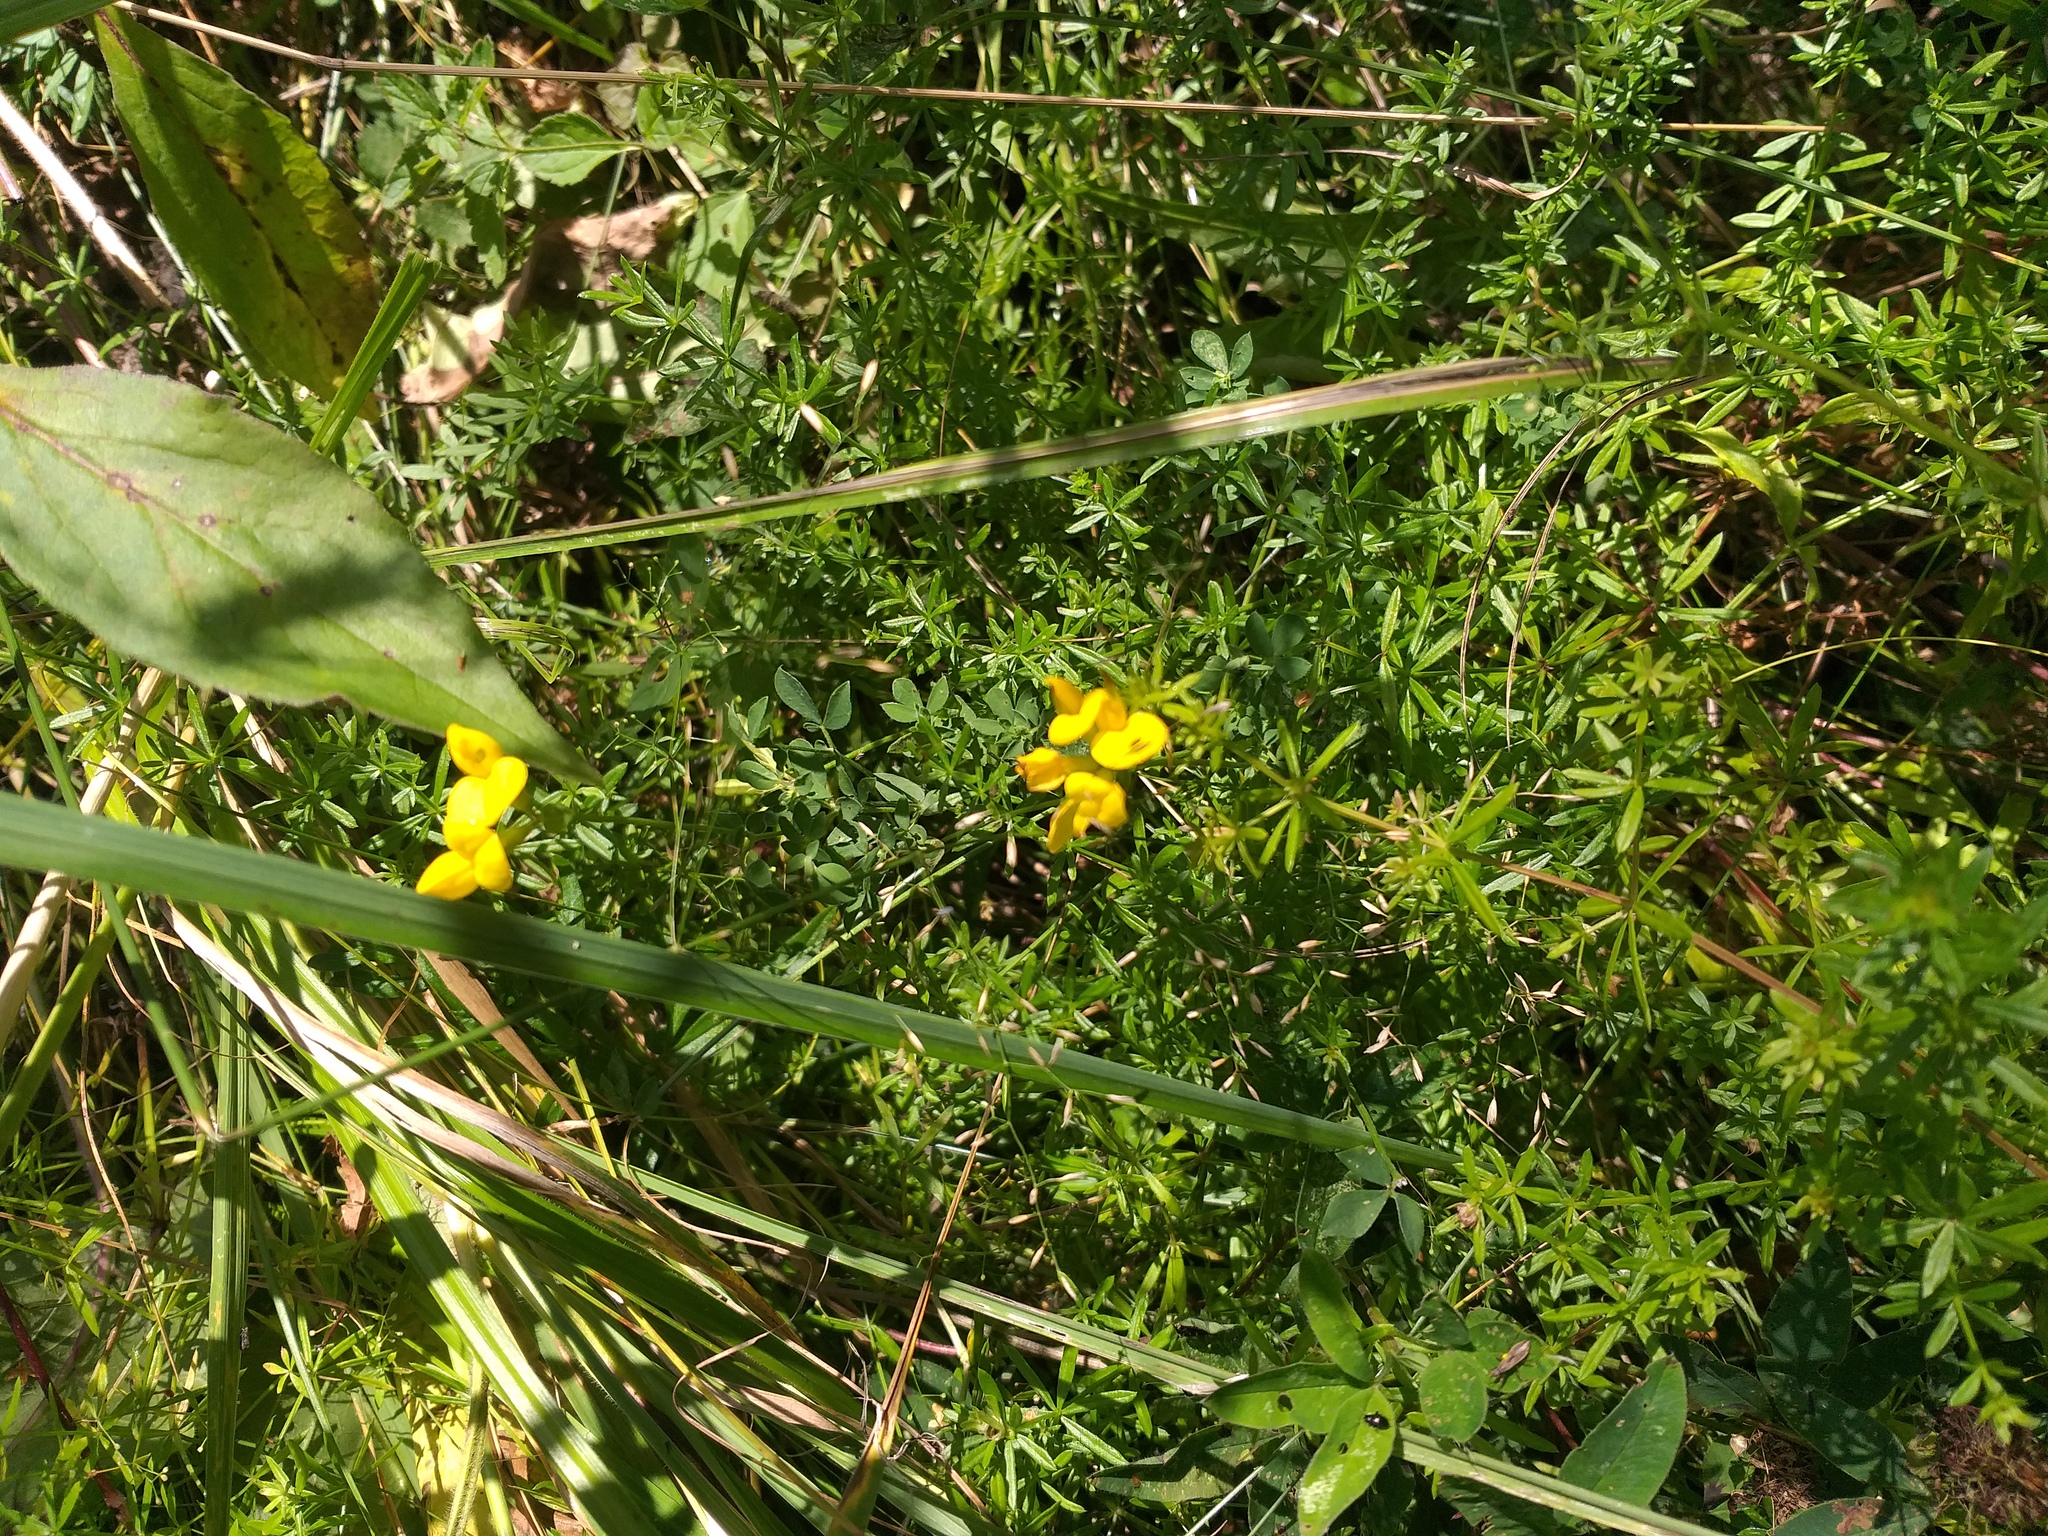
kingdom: Plantae
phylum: Tracheophyta
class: Magnoliopsida
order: Fabales
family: Fabaceae
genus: Lotus
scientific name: Lotus corniculatus
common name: Common bird's-foot-trefoil
